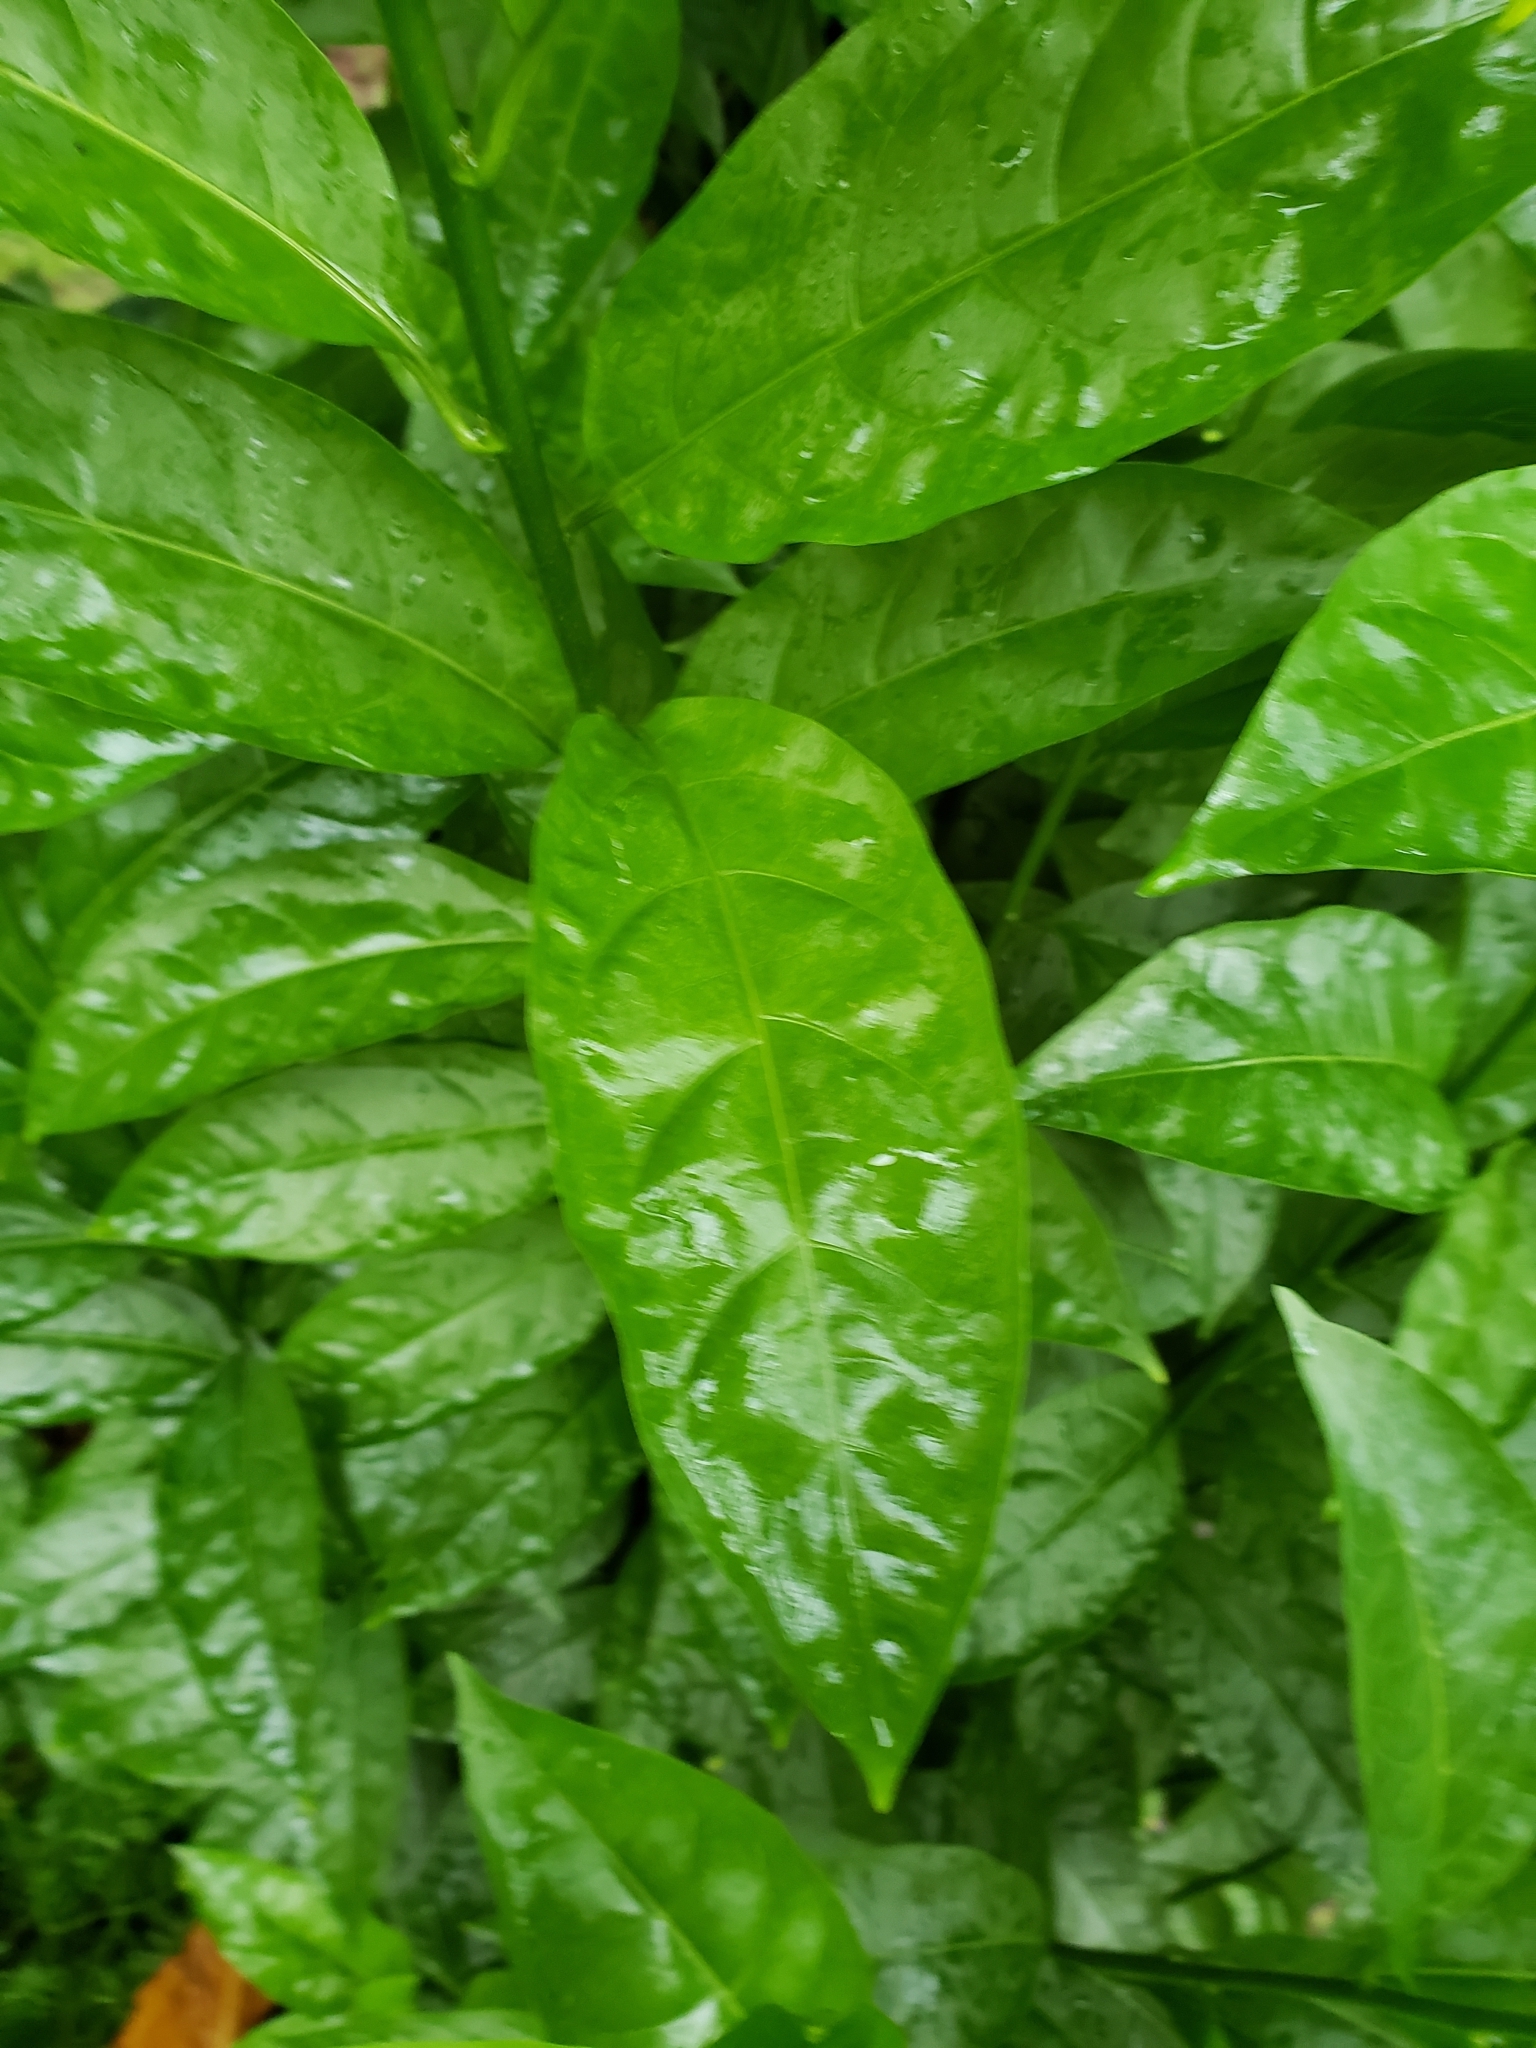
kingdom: Plantae
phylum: Tracheophyta
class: Magnoliopsida
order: Solanales
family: Solanaceae
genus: Cestrum
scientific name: Cestrum nocturnum
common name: Night jessamine
